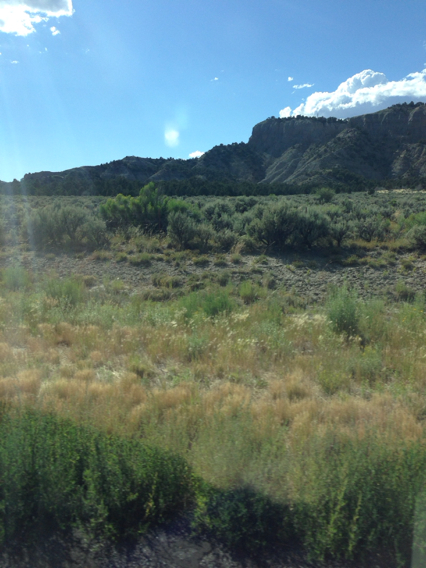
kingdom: Plantae
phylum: Tracheophyta
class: Magnoliopsida
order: Asterales
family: Asteraceae
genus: Artemisia
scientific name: Artemisia tridentata
